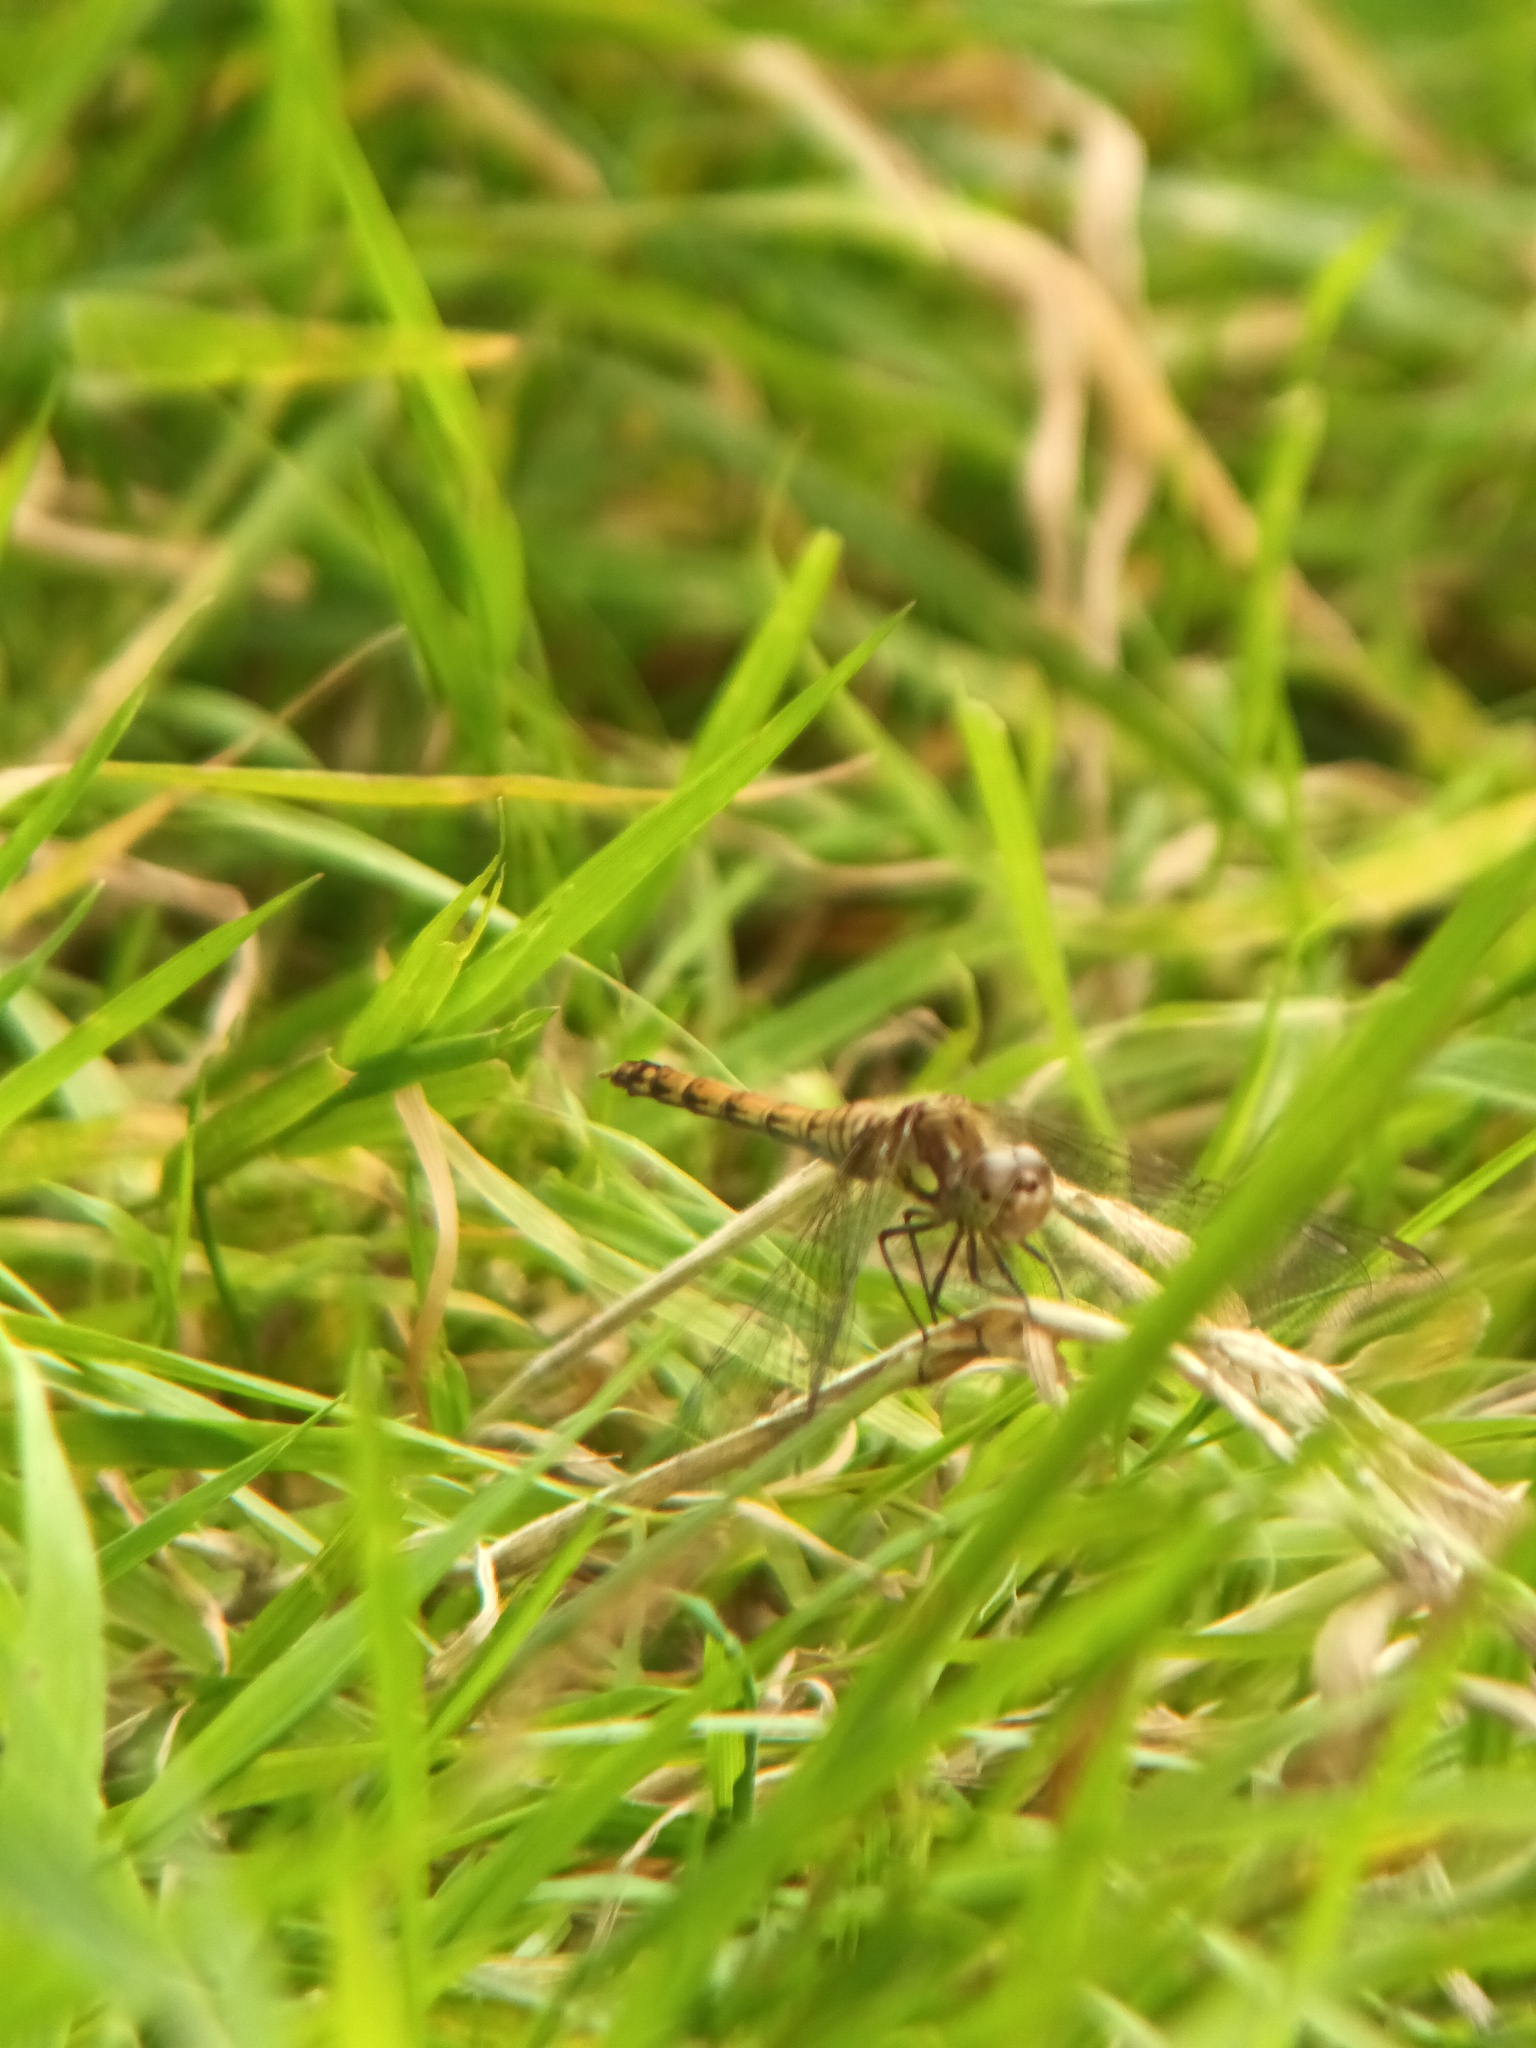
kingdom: Animalia
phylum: Arthropoda
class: Insecta
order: Odonata
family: Libellulidae
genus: Sympetrum
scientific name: Sympetrum striolatum
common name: Common darter
